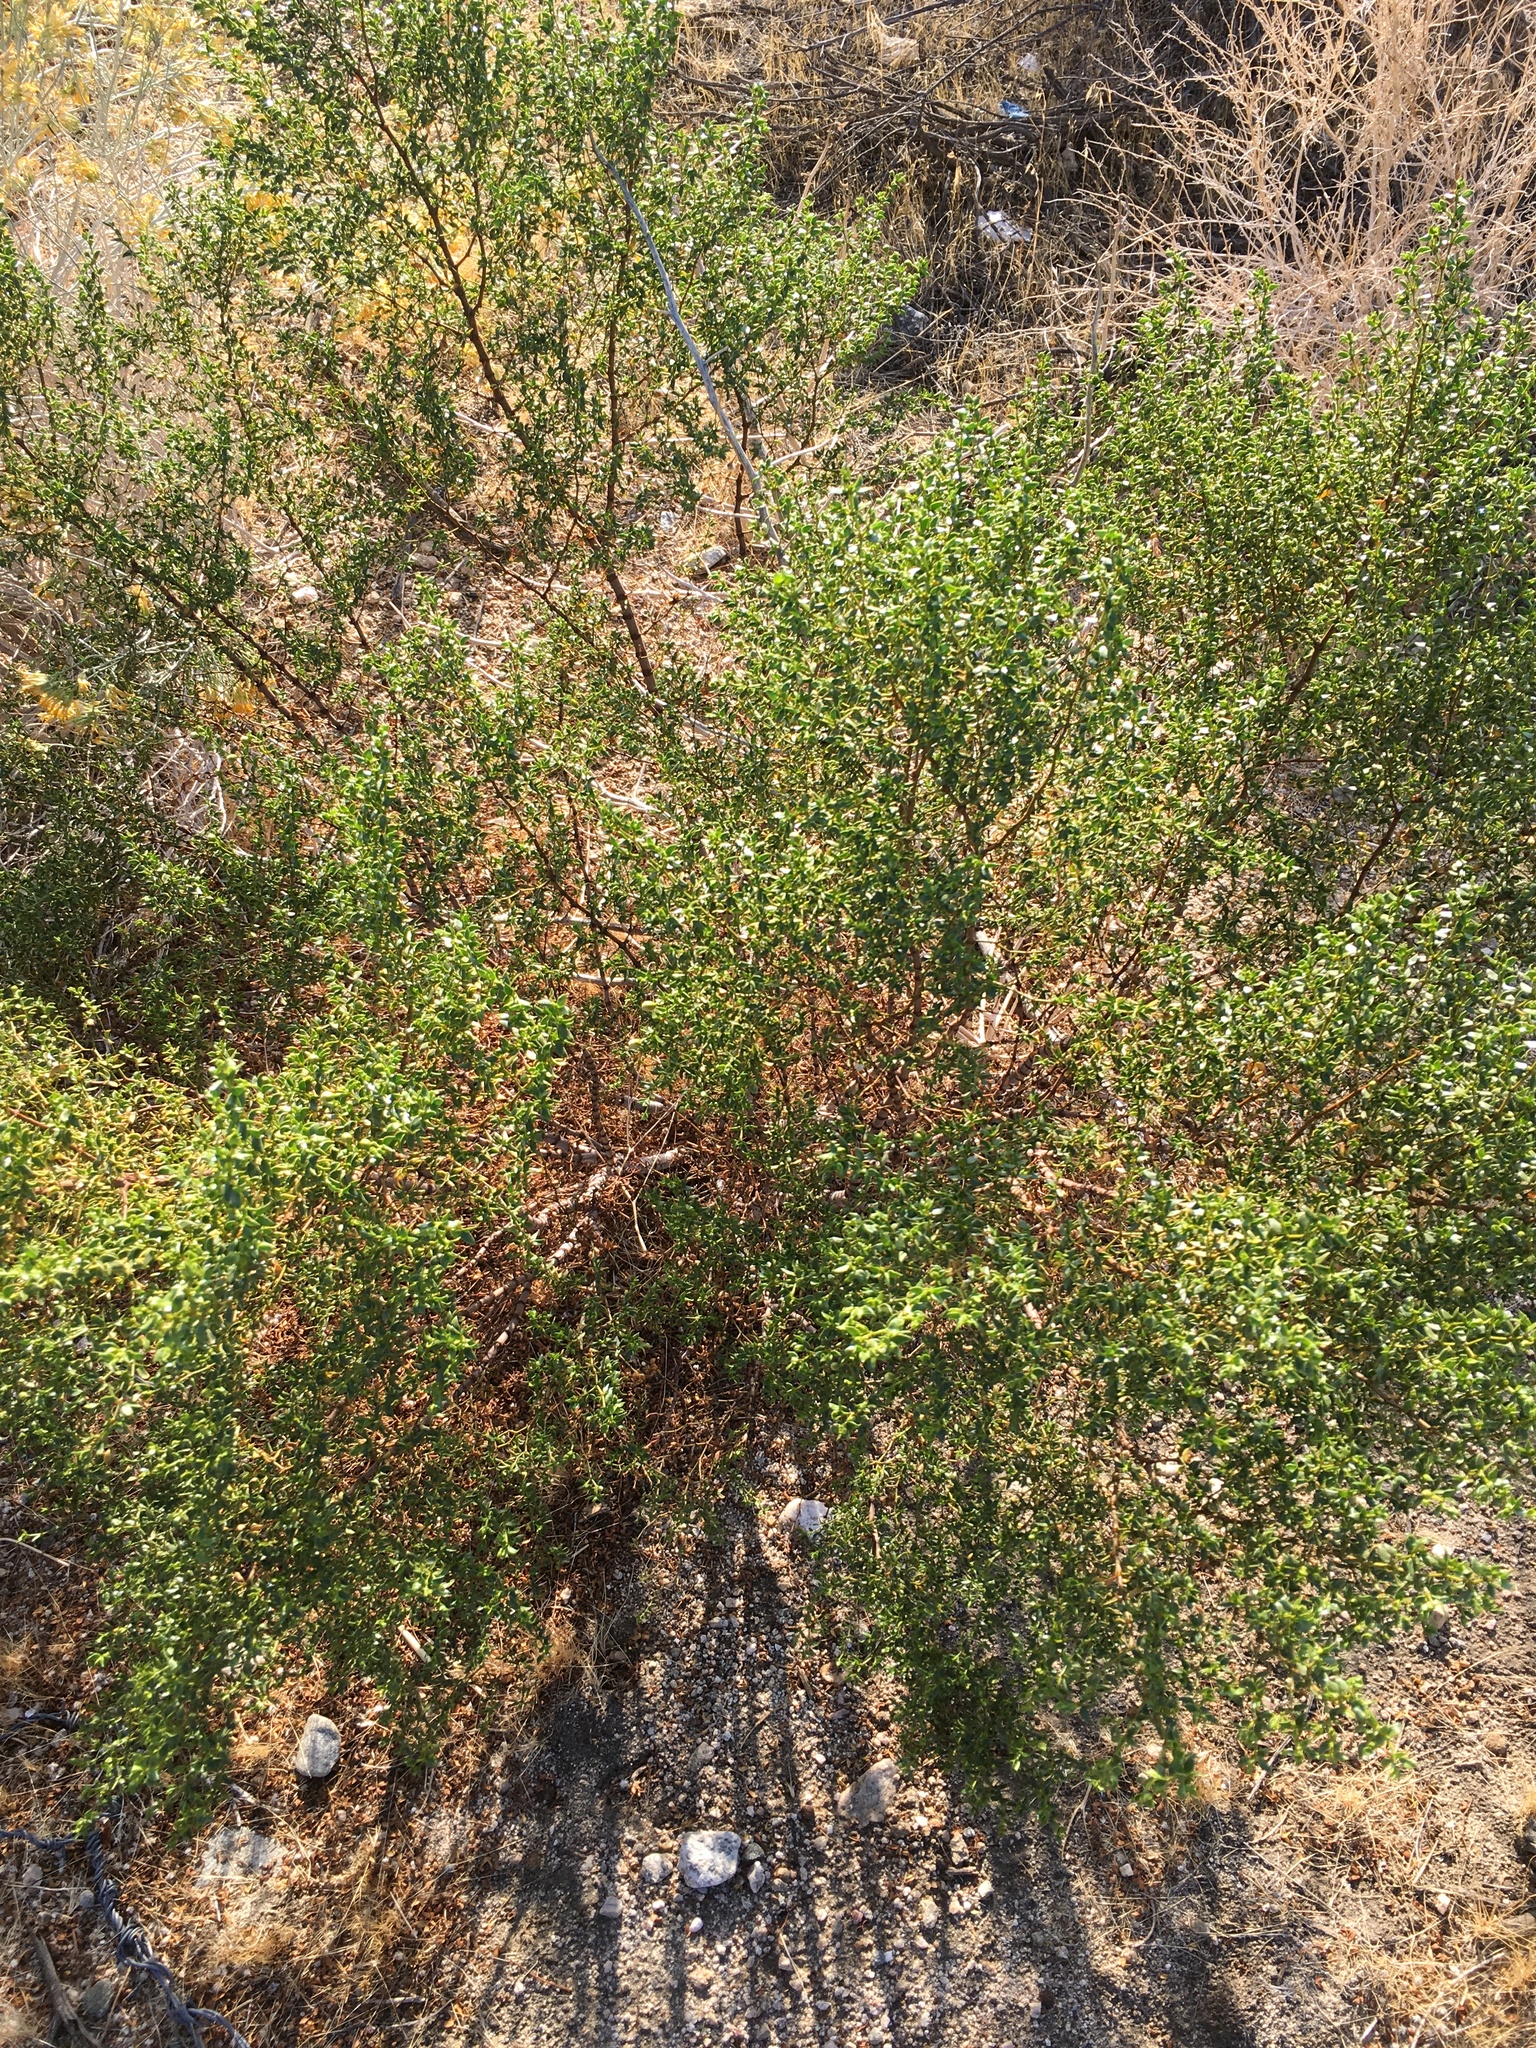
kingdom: Plantae
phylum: Tracheophyta
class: Magnoliopsida
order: Zygophyllales
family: Zygophyllaceae
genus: Larrea
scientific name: Larrea tridentata
